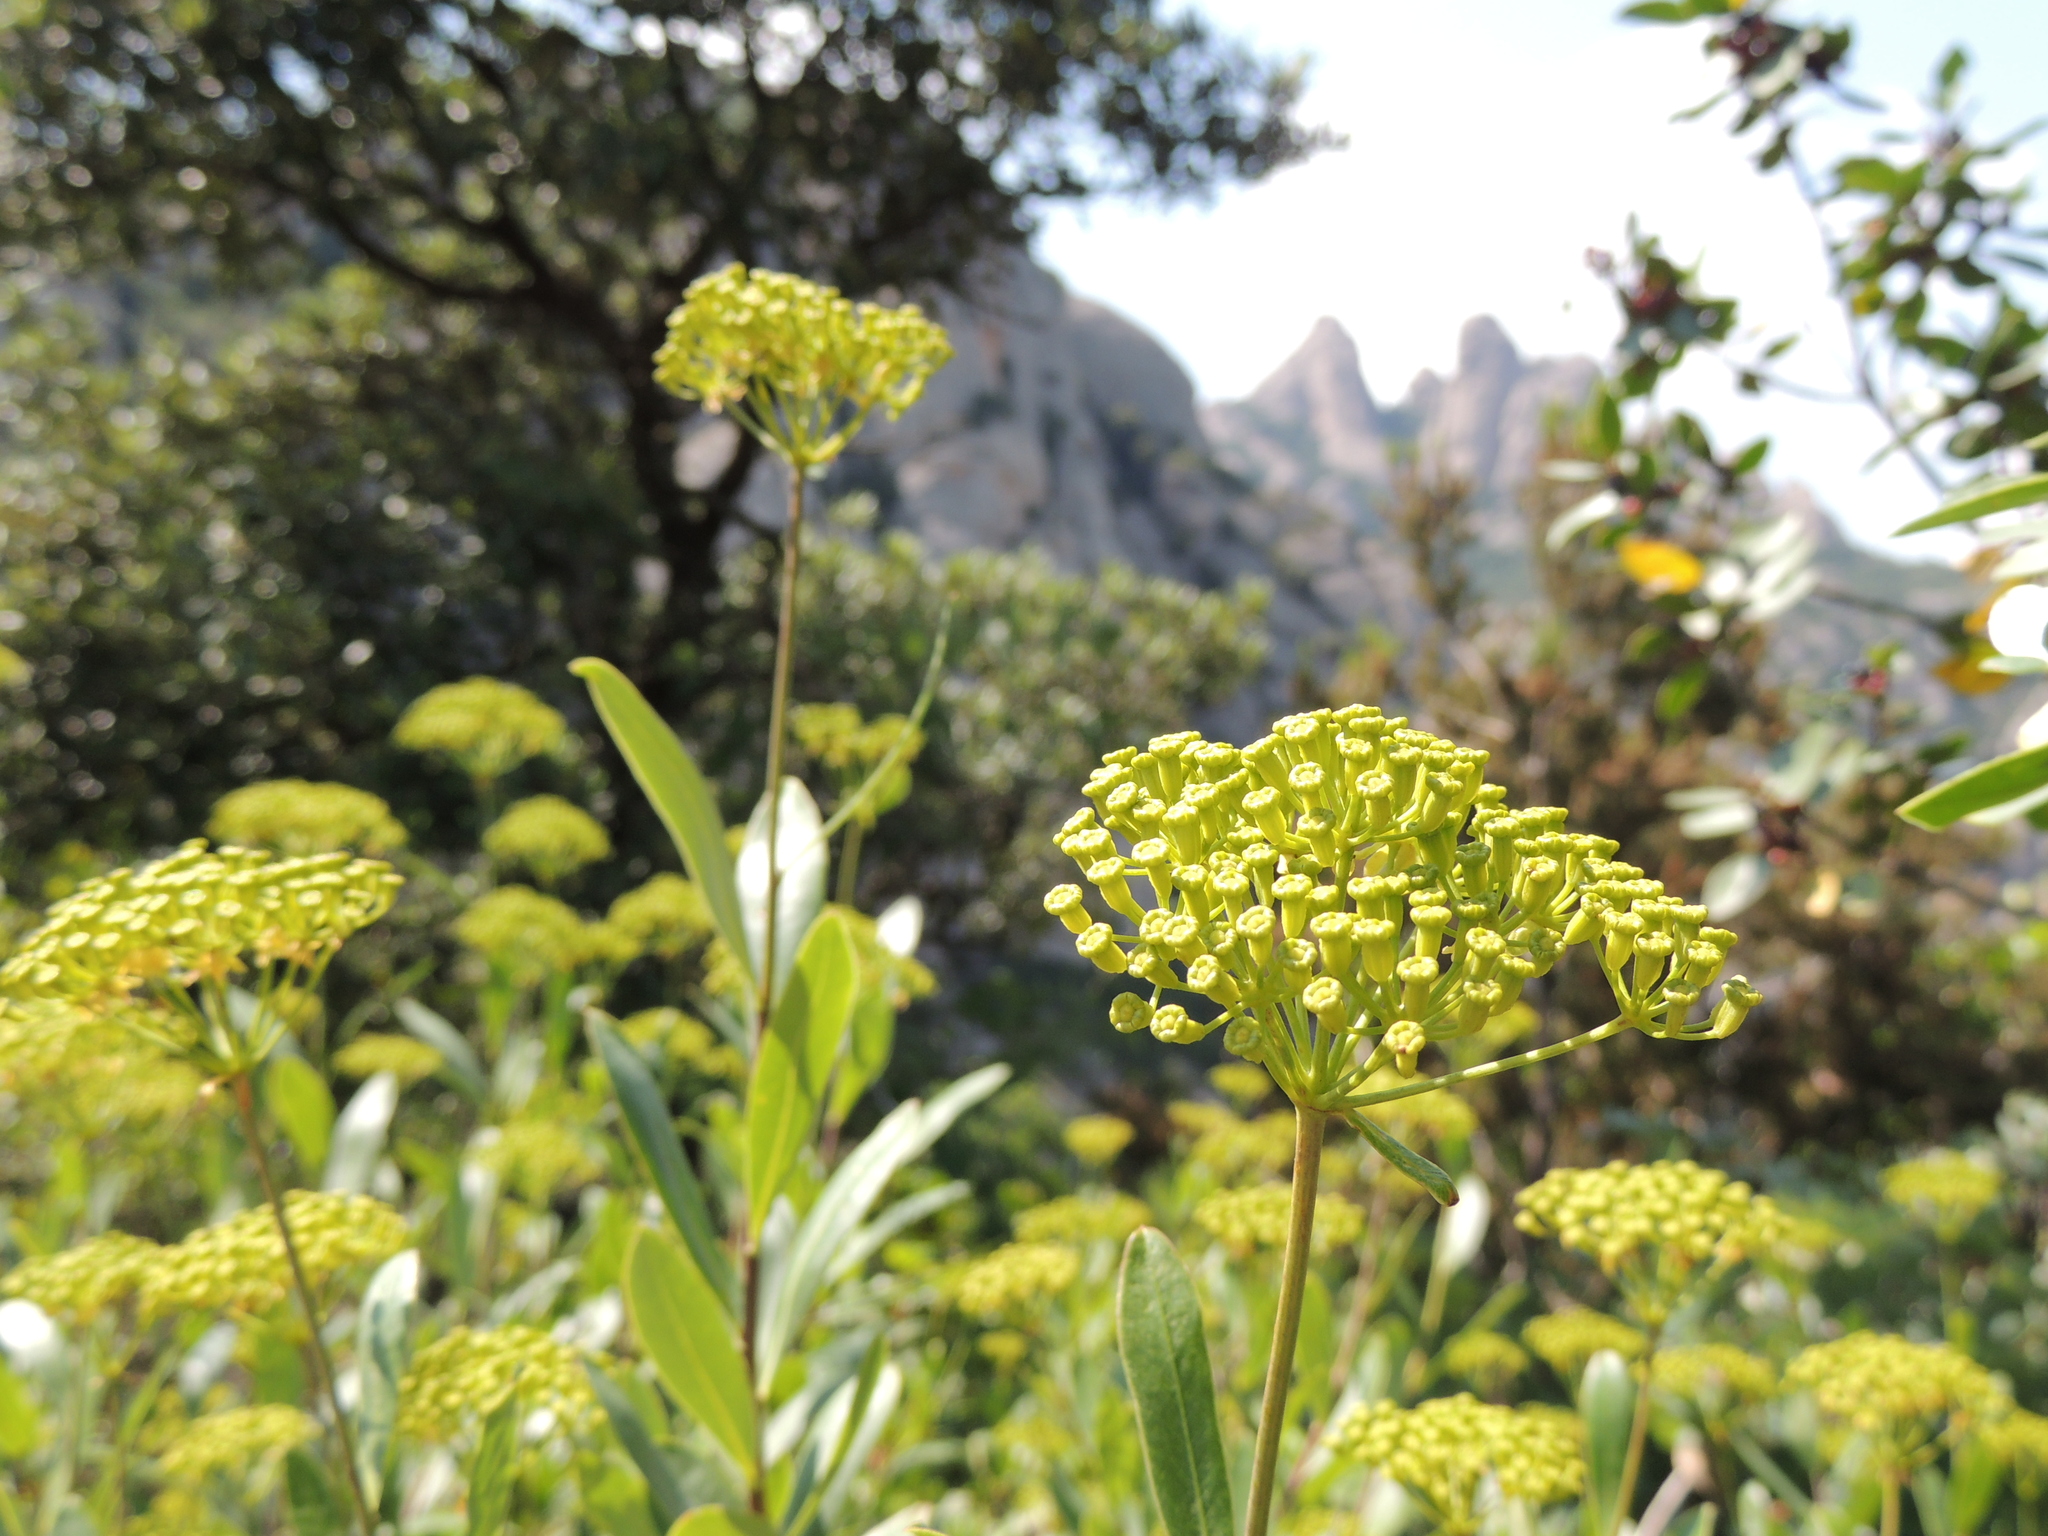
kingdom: Plantae
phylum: Tracheophyta
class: Magnoliopsida
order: Apiales
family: Apiaceae
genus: Bupleurum
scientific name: Bupleurum fruticosum
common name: Shrubby hare's-ear
